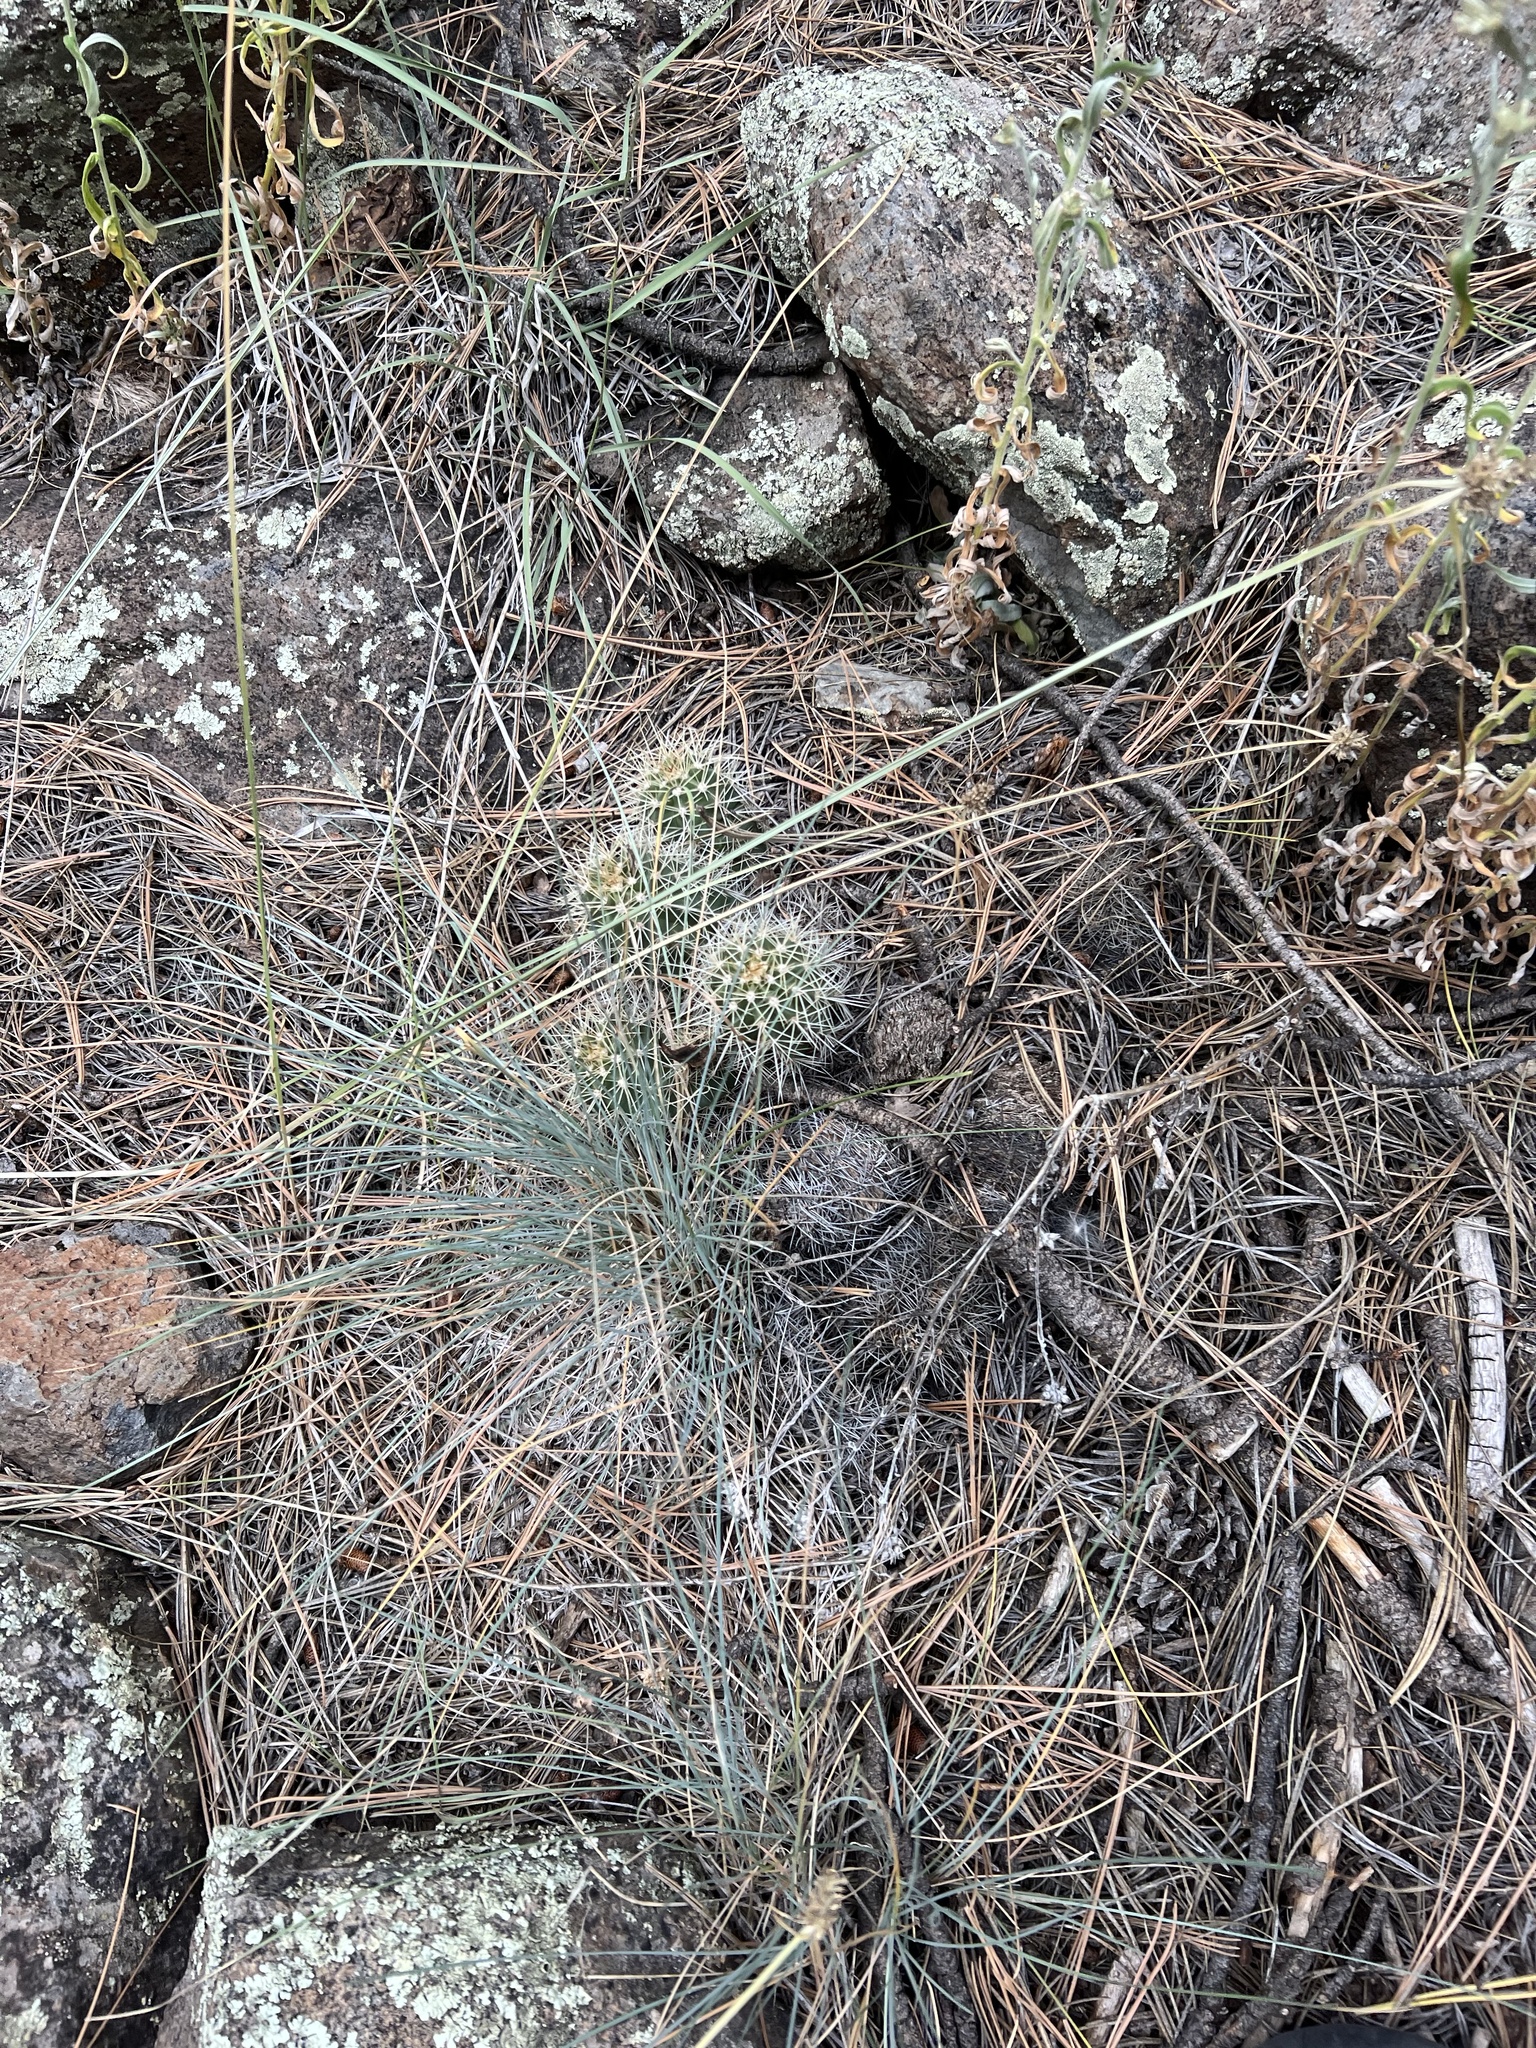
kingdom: Plantae
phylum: Tracheophyta
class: Magnoliopsida
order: Caryophyllales
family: Cactaceae
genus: Echinocereus
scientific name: Echinocereus bakeri
